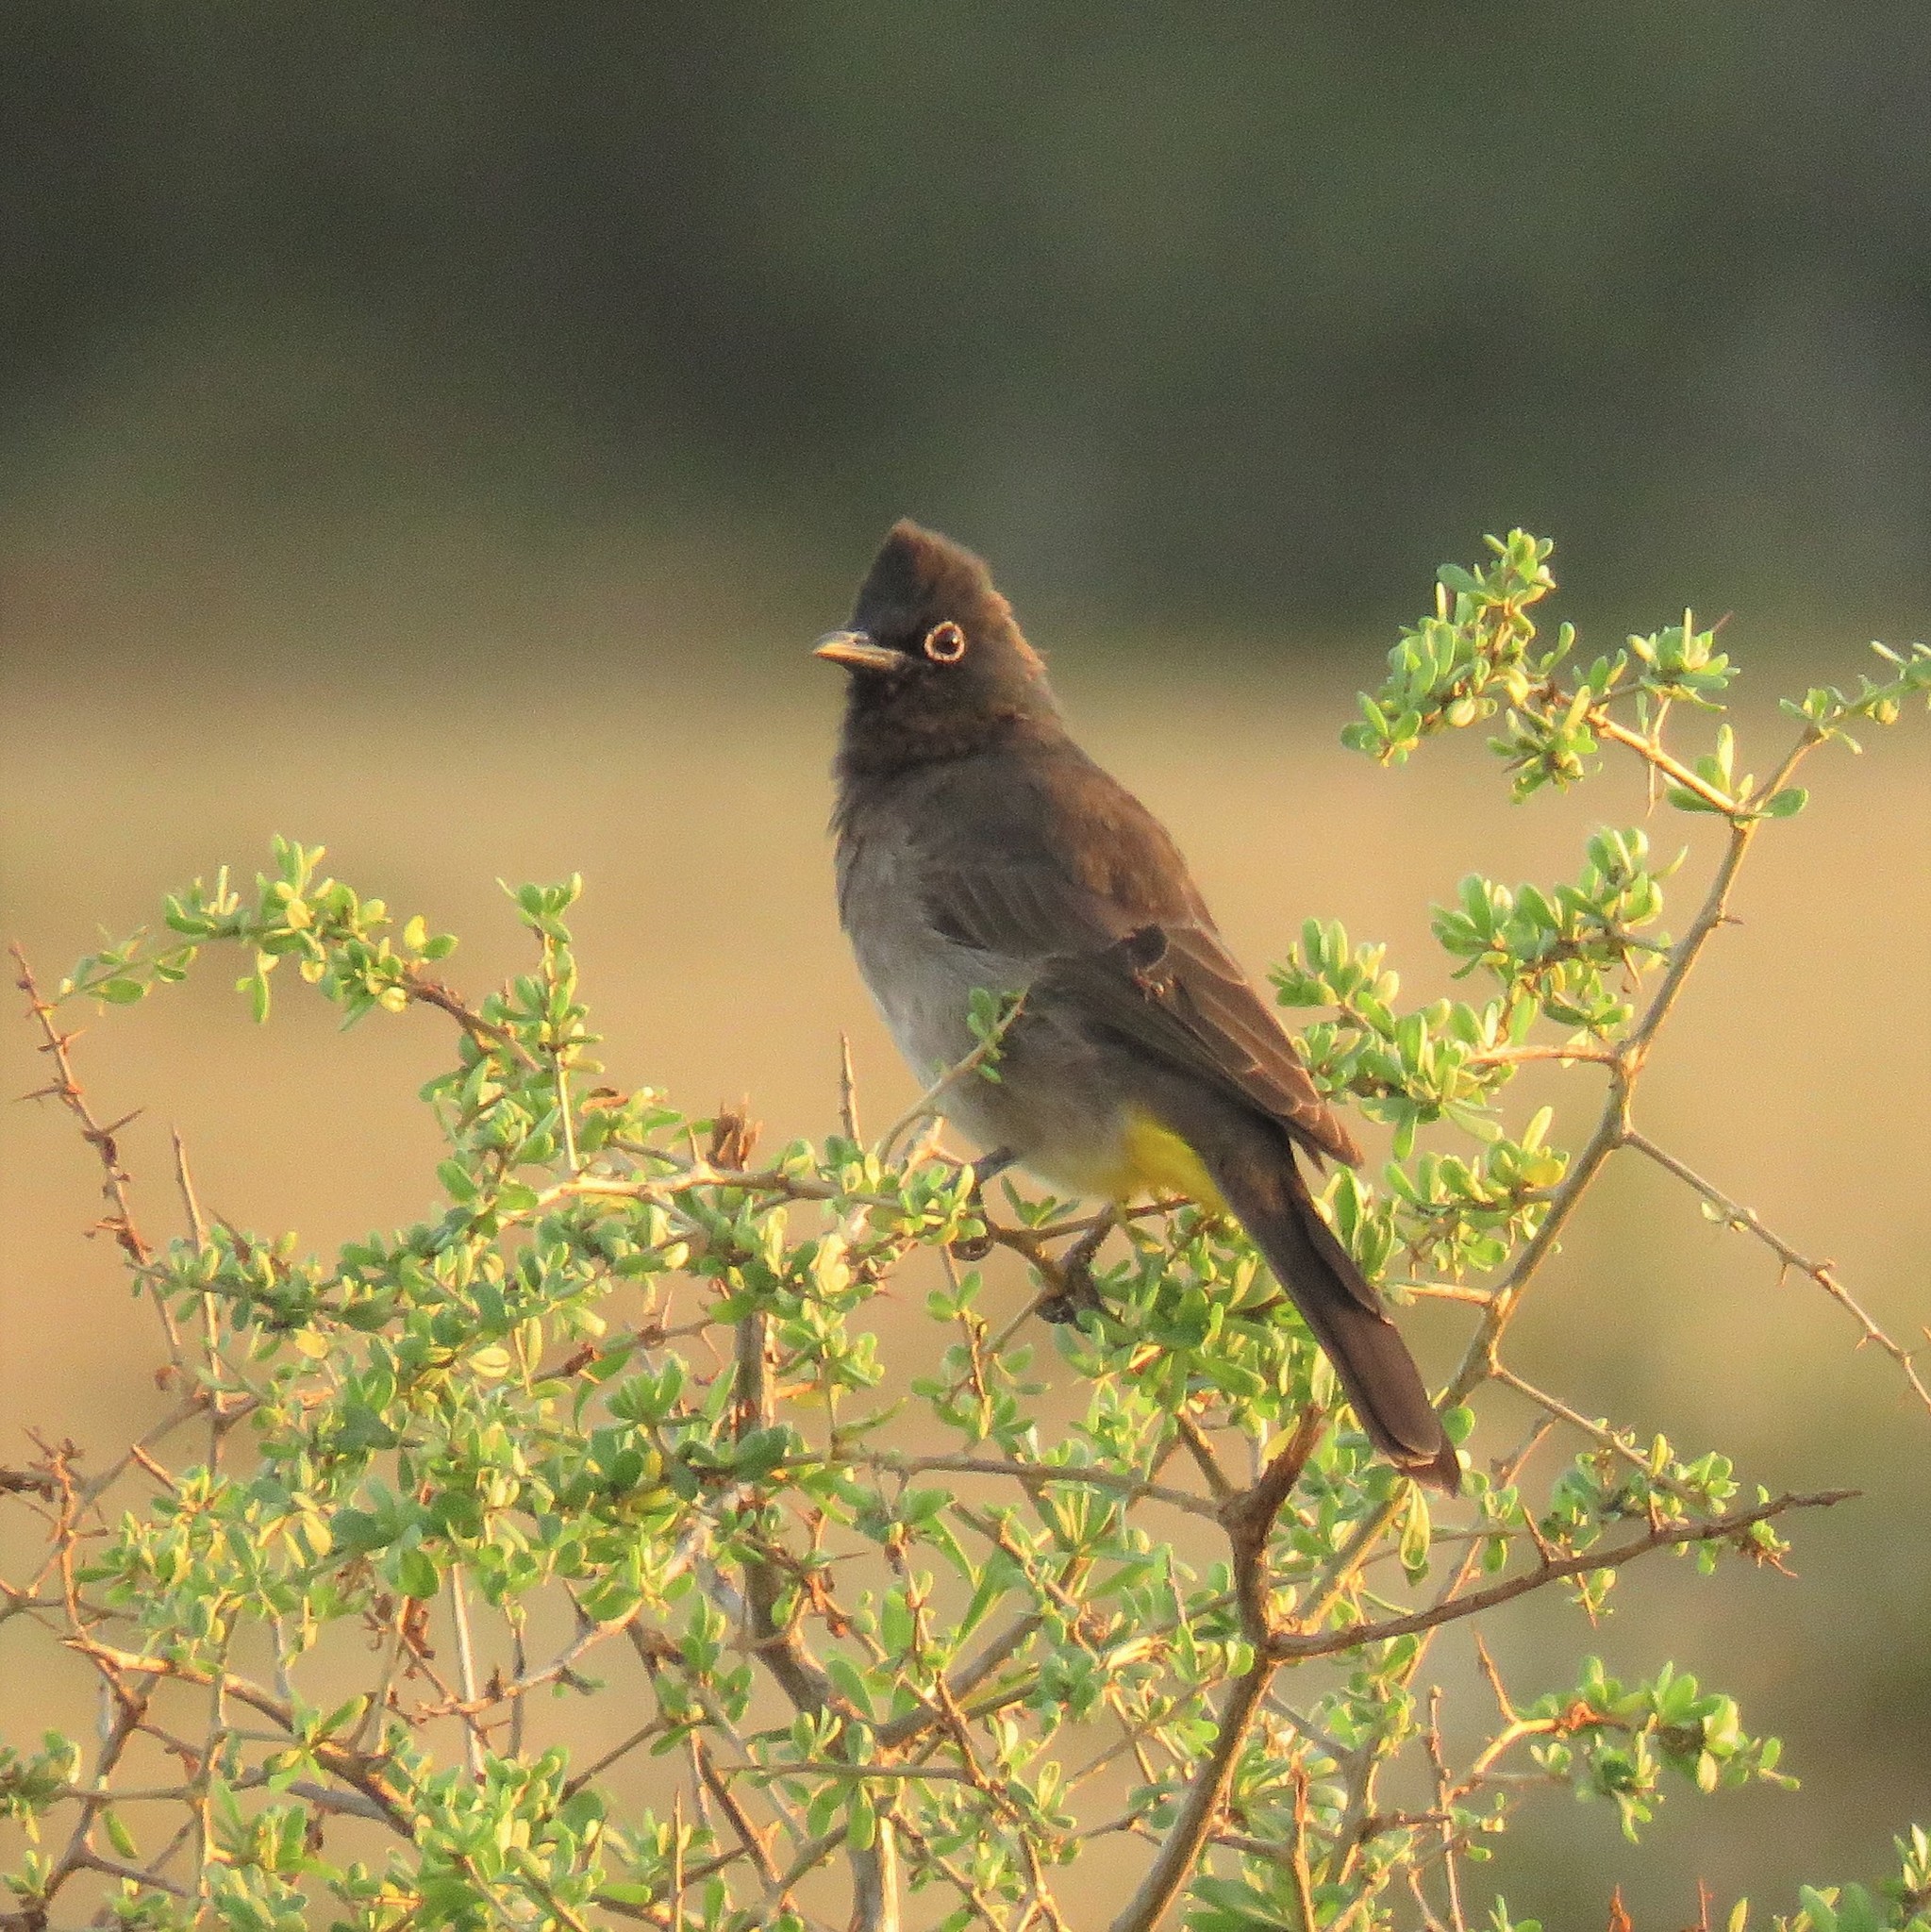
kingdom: Animalia
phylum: Chordata
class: Aves
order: Passeriformes
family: Pycnonotidae
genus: Pycnonotus
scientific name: Pycnonotus capensis
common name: Cape bulbul
